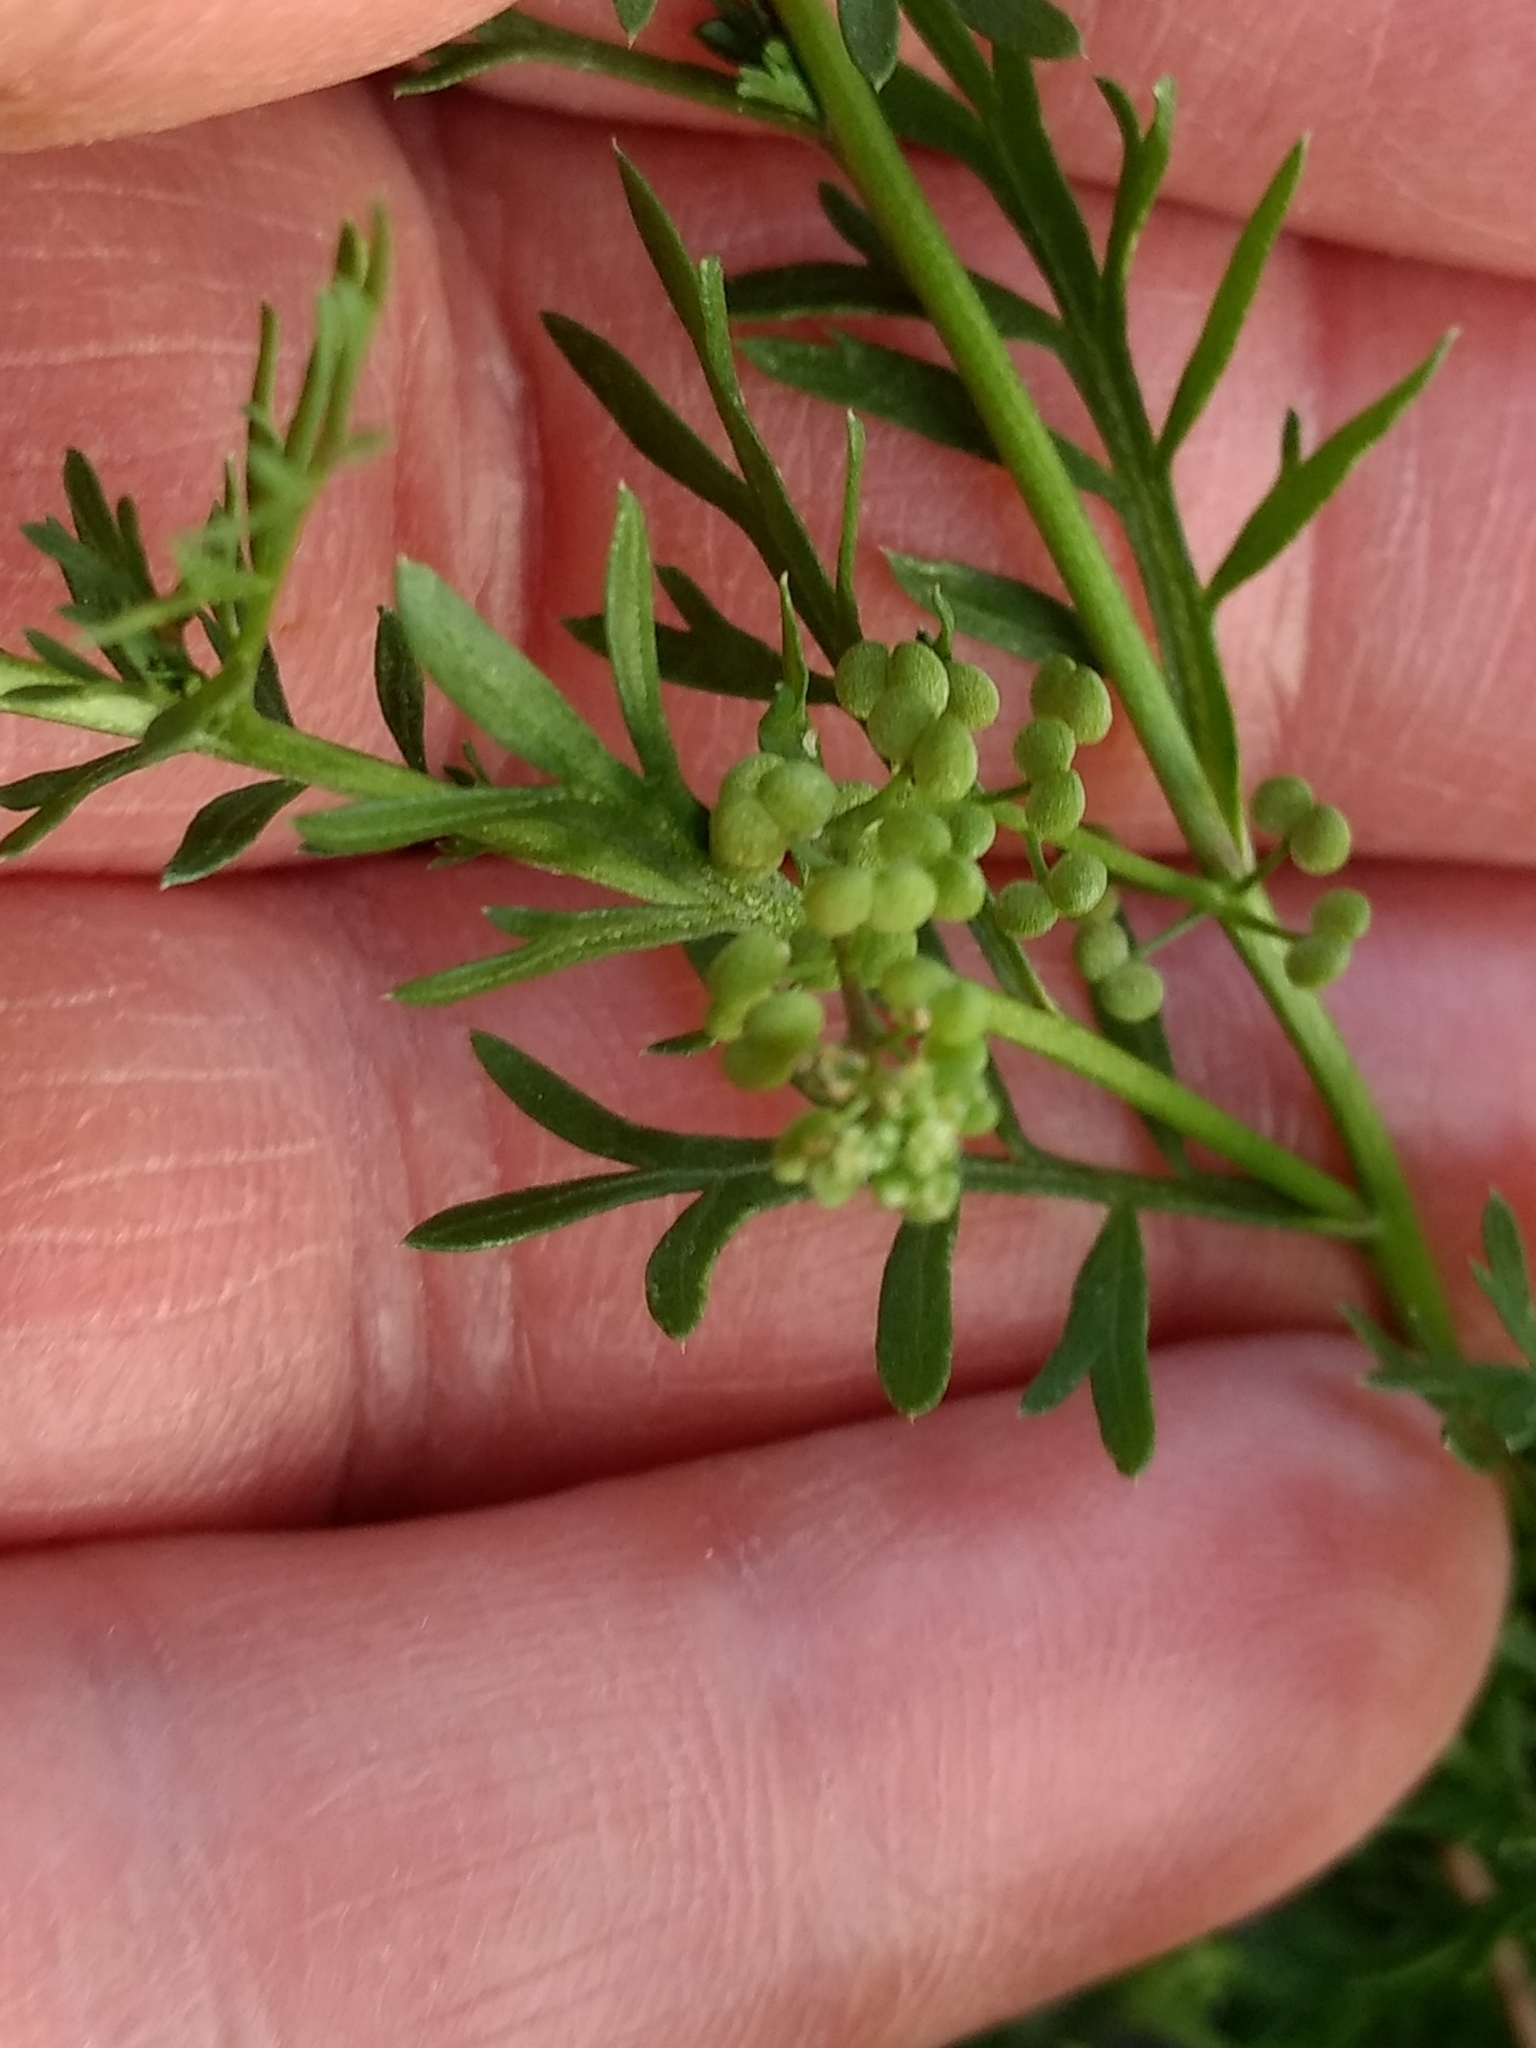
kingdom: Plantae
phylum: Tracheophyta
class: Magnoliopsida
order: Brassicales
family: Brassicaceae
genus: Lepidium
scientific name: Lepidium didymum
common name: Lesser swinecress
